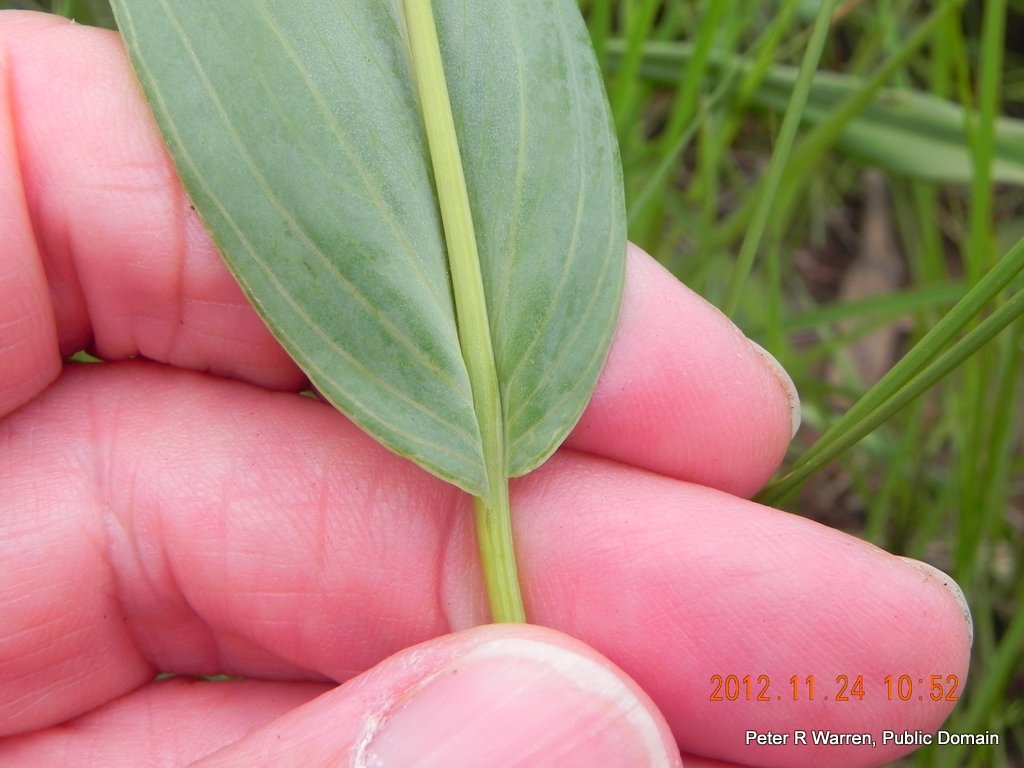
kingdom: Plantae
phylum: Tracheophyta
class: Magnoliopsida
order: Asterales
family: Asteraceae
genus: Senecio
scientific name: Senecio glaberrimus
